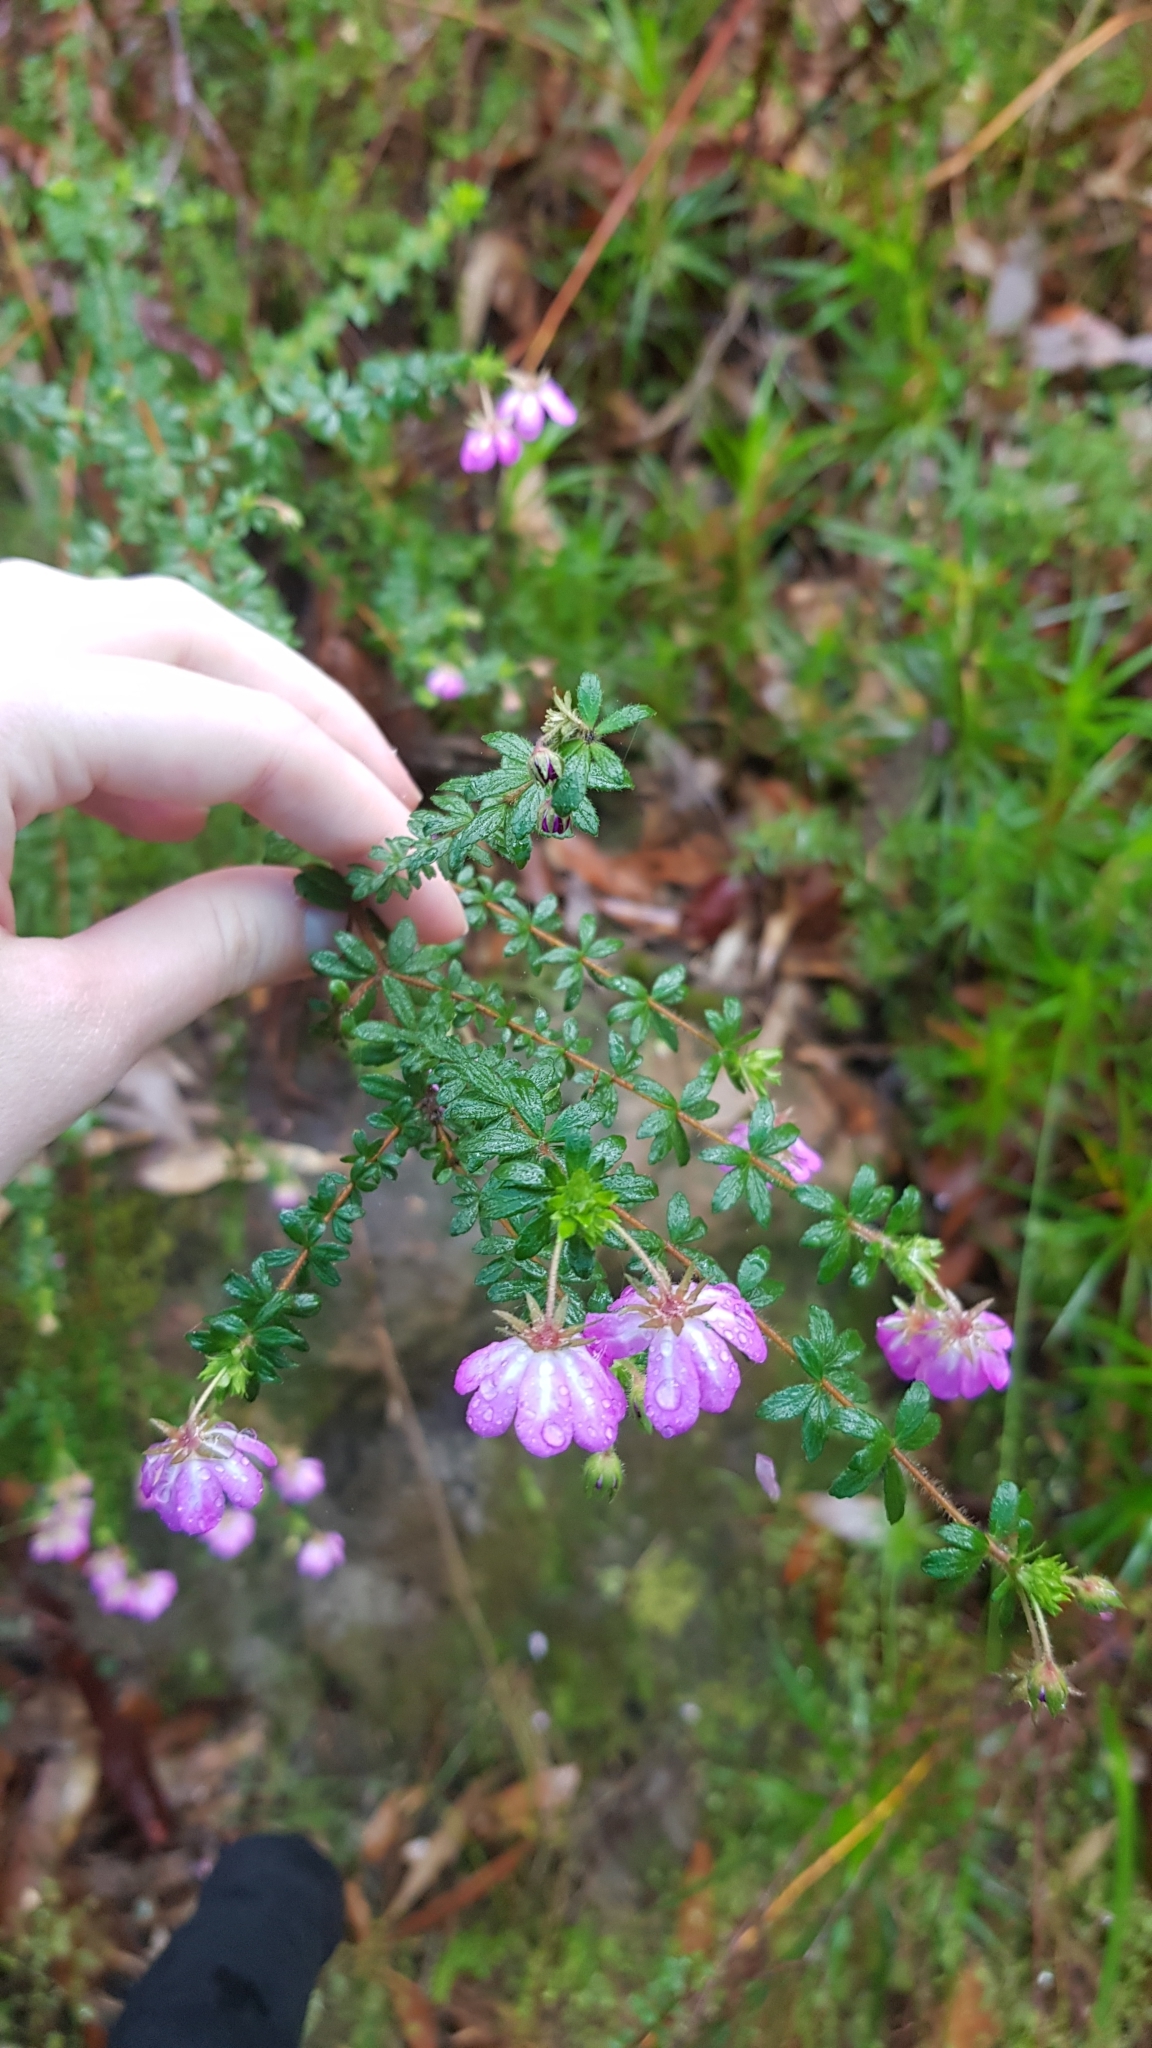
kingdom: Plantae
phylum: Tracheophyta
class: Magnoliopsida
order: Oxalidales
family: Cunoniaceae
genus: Bauera
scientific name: Bauera rubioides
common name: River-rose
